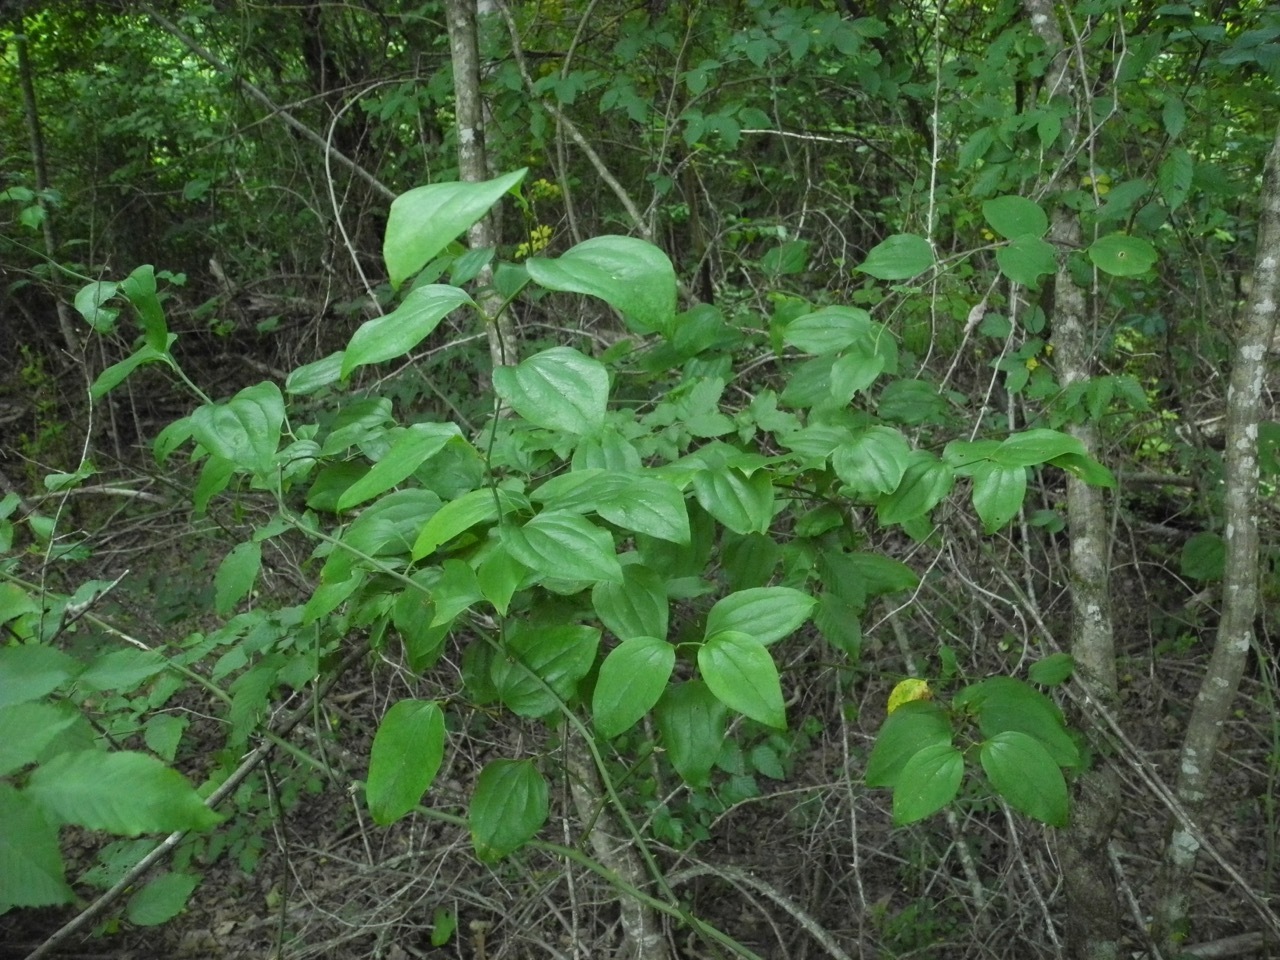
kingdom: Plantae
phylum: Tracheophyta
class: Liliopsida
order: Liliales
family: Smilacaceae
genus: Smilax
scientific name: Smilax rotundifolia
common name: Bullbriar
